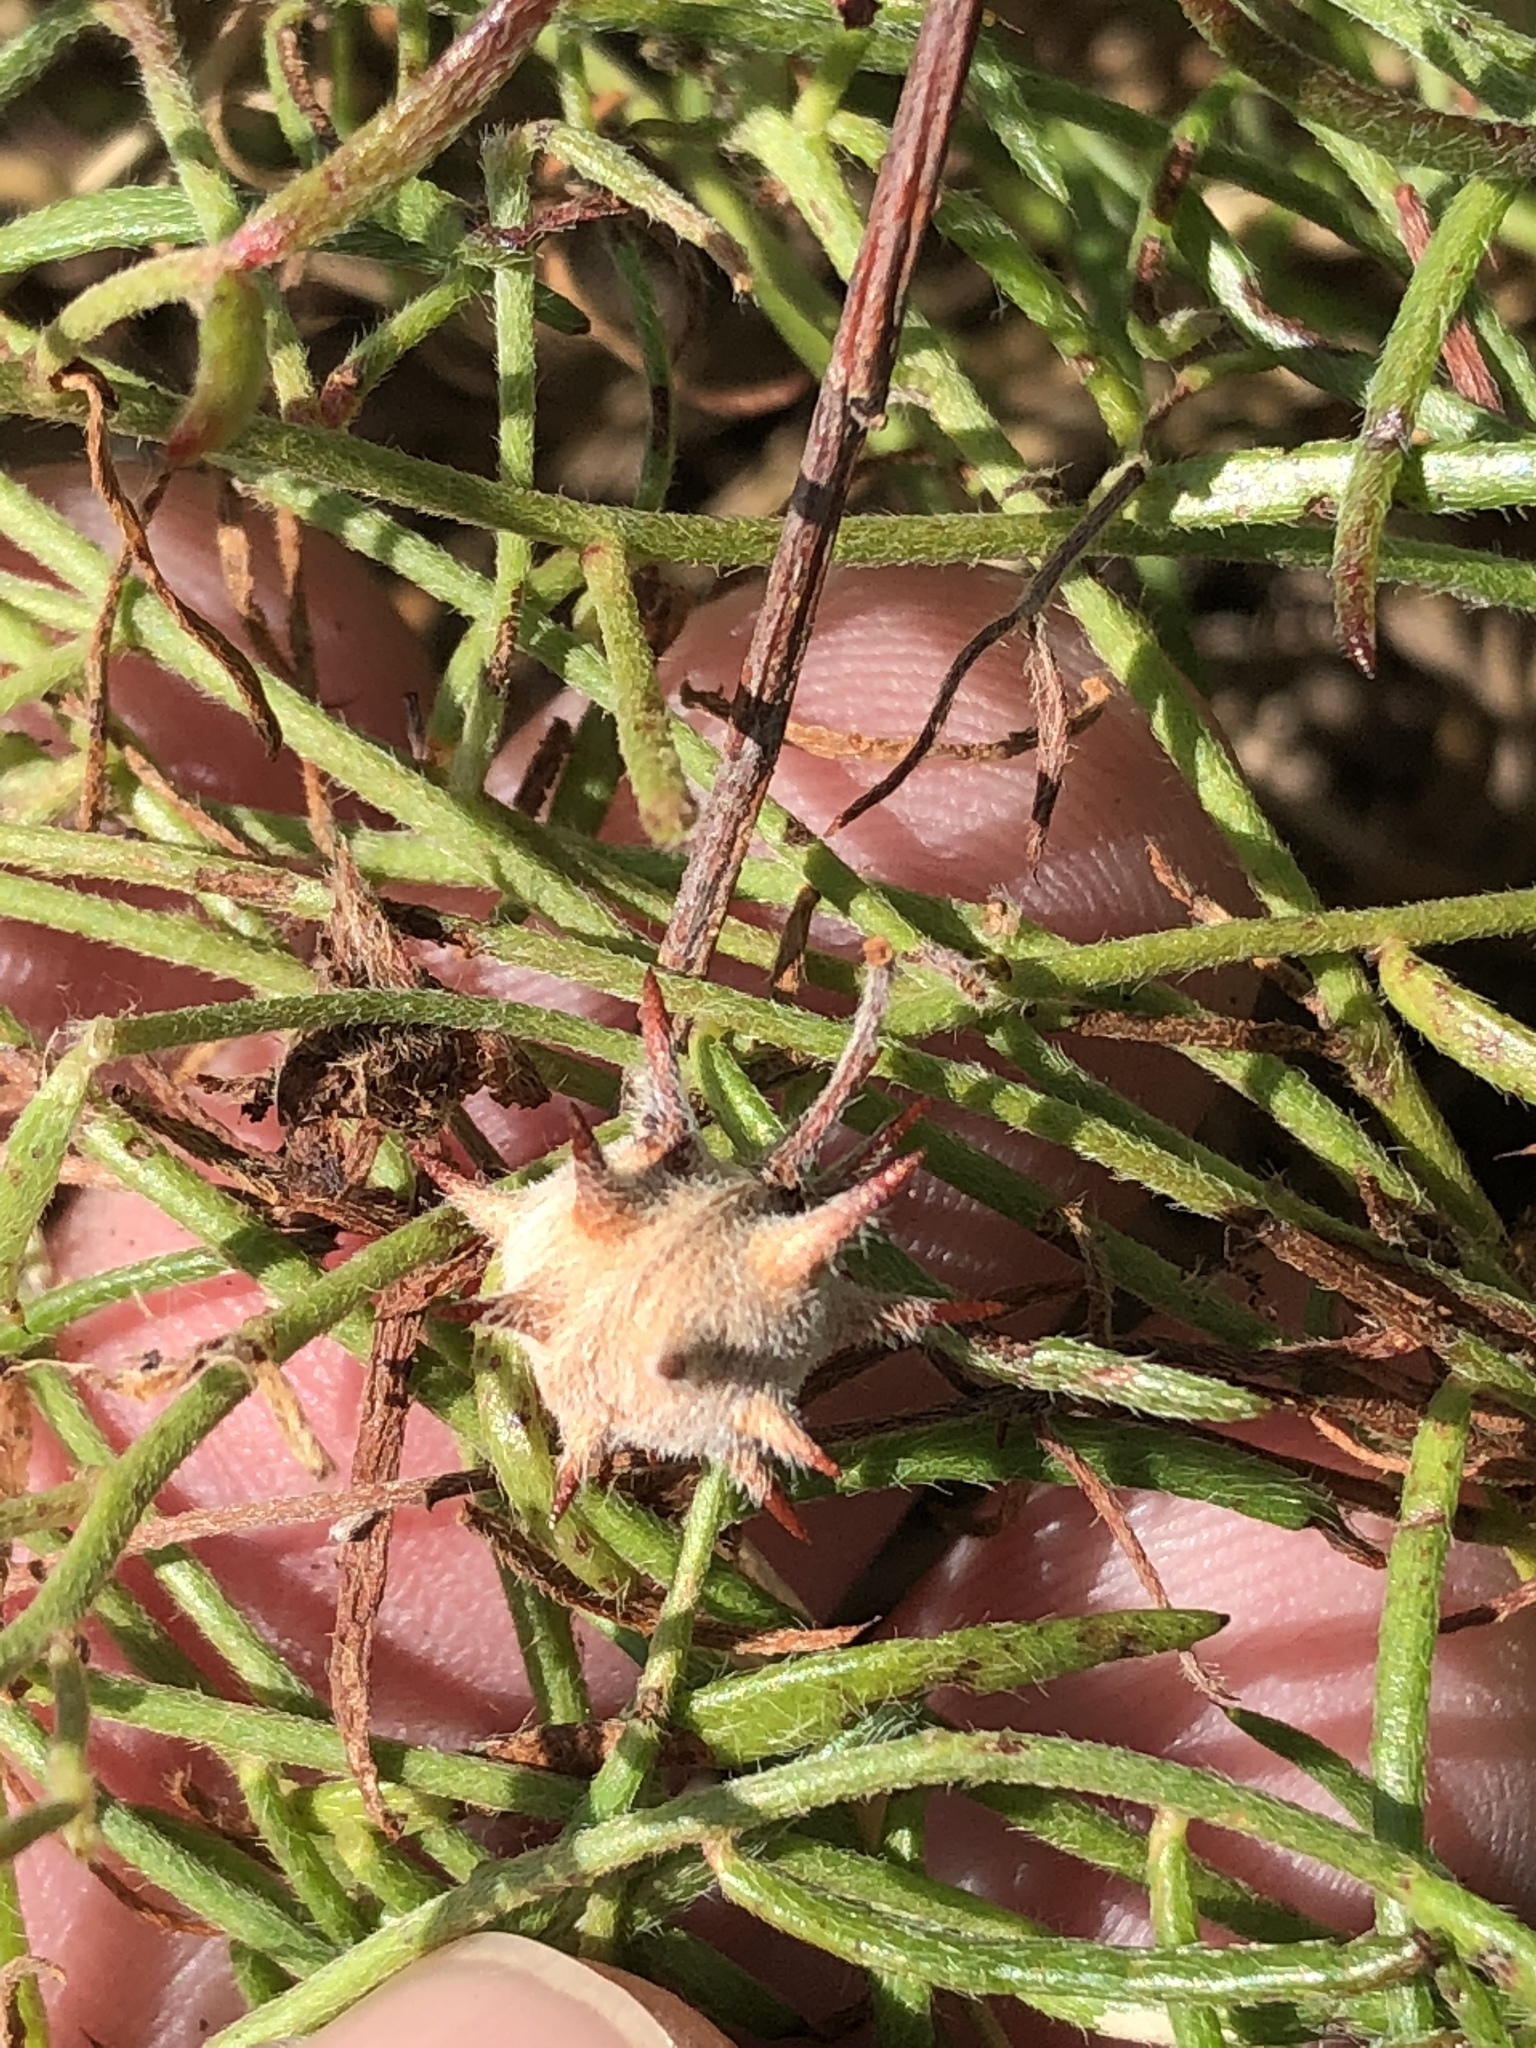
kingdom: Plantae
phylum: Tracheophyta
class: Magnoliopsida
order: Zygophyllales
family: Krameriaceae
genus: Krameria
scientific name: Krameria lanceolata
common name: Ratany
